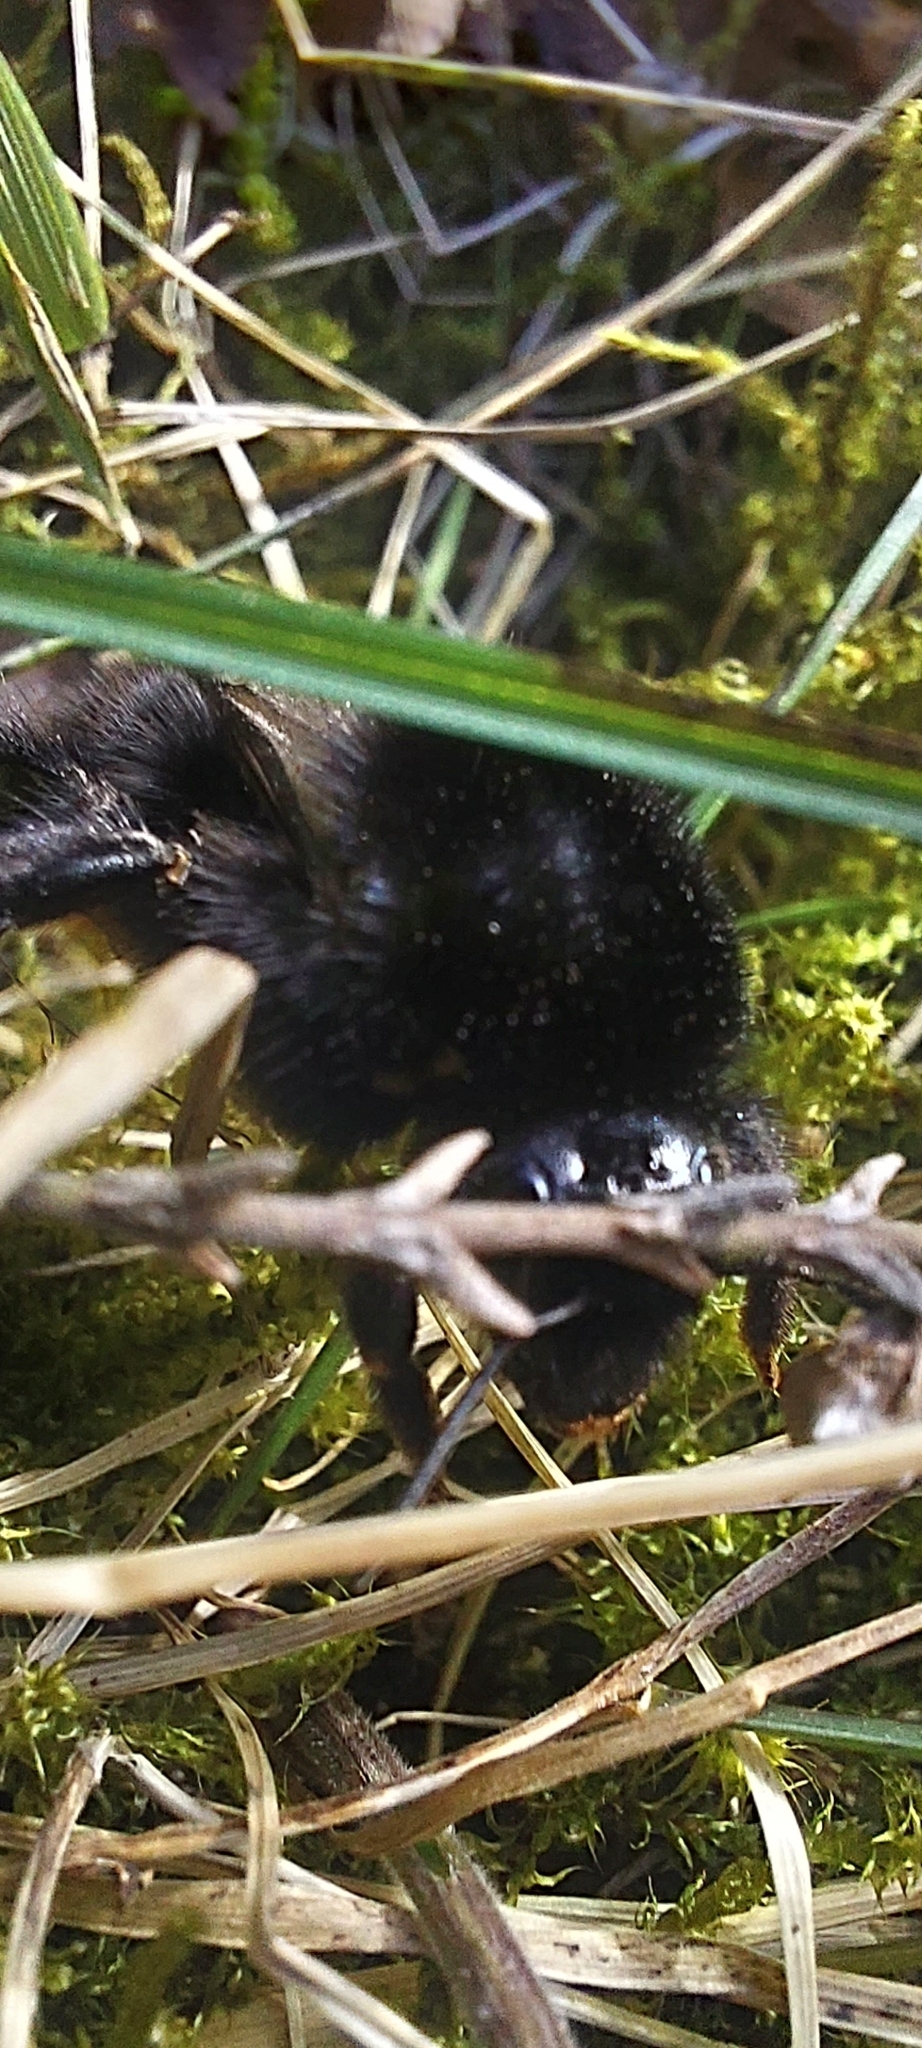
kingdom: Animalia
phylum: Arthropoda
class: Insecta
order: Hymenoptera
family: Apidae
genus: Bombus
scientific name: Bombus lapidarius
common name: Large red-tailed humble-bee
